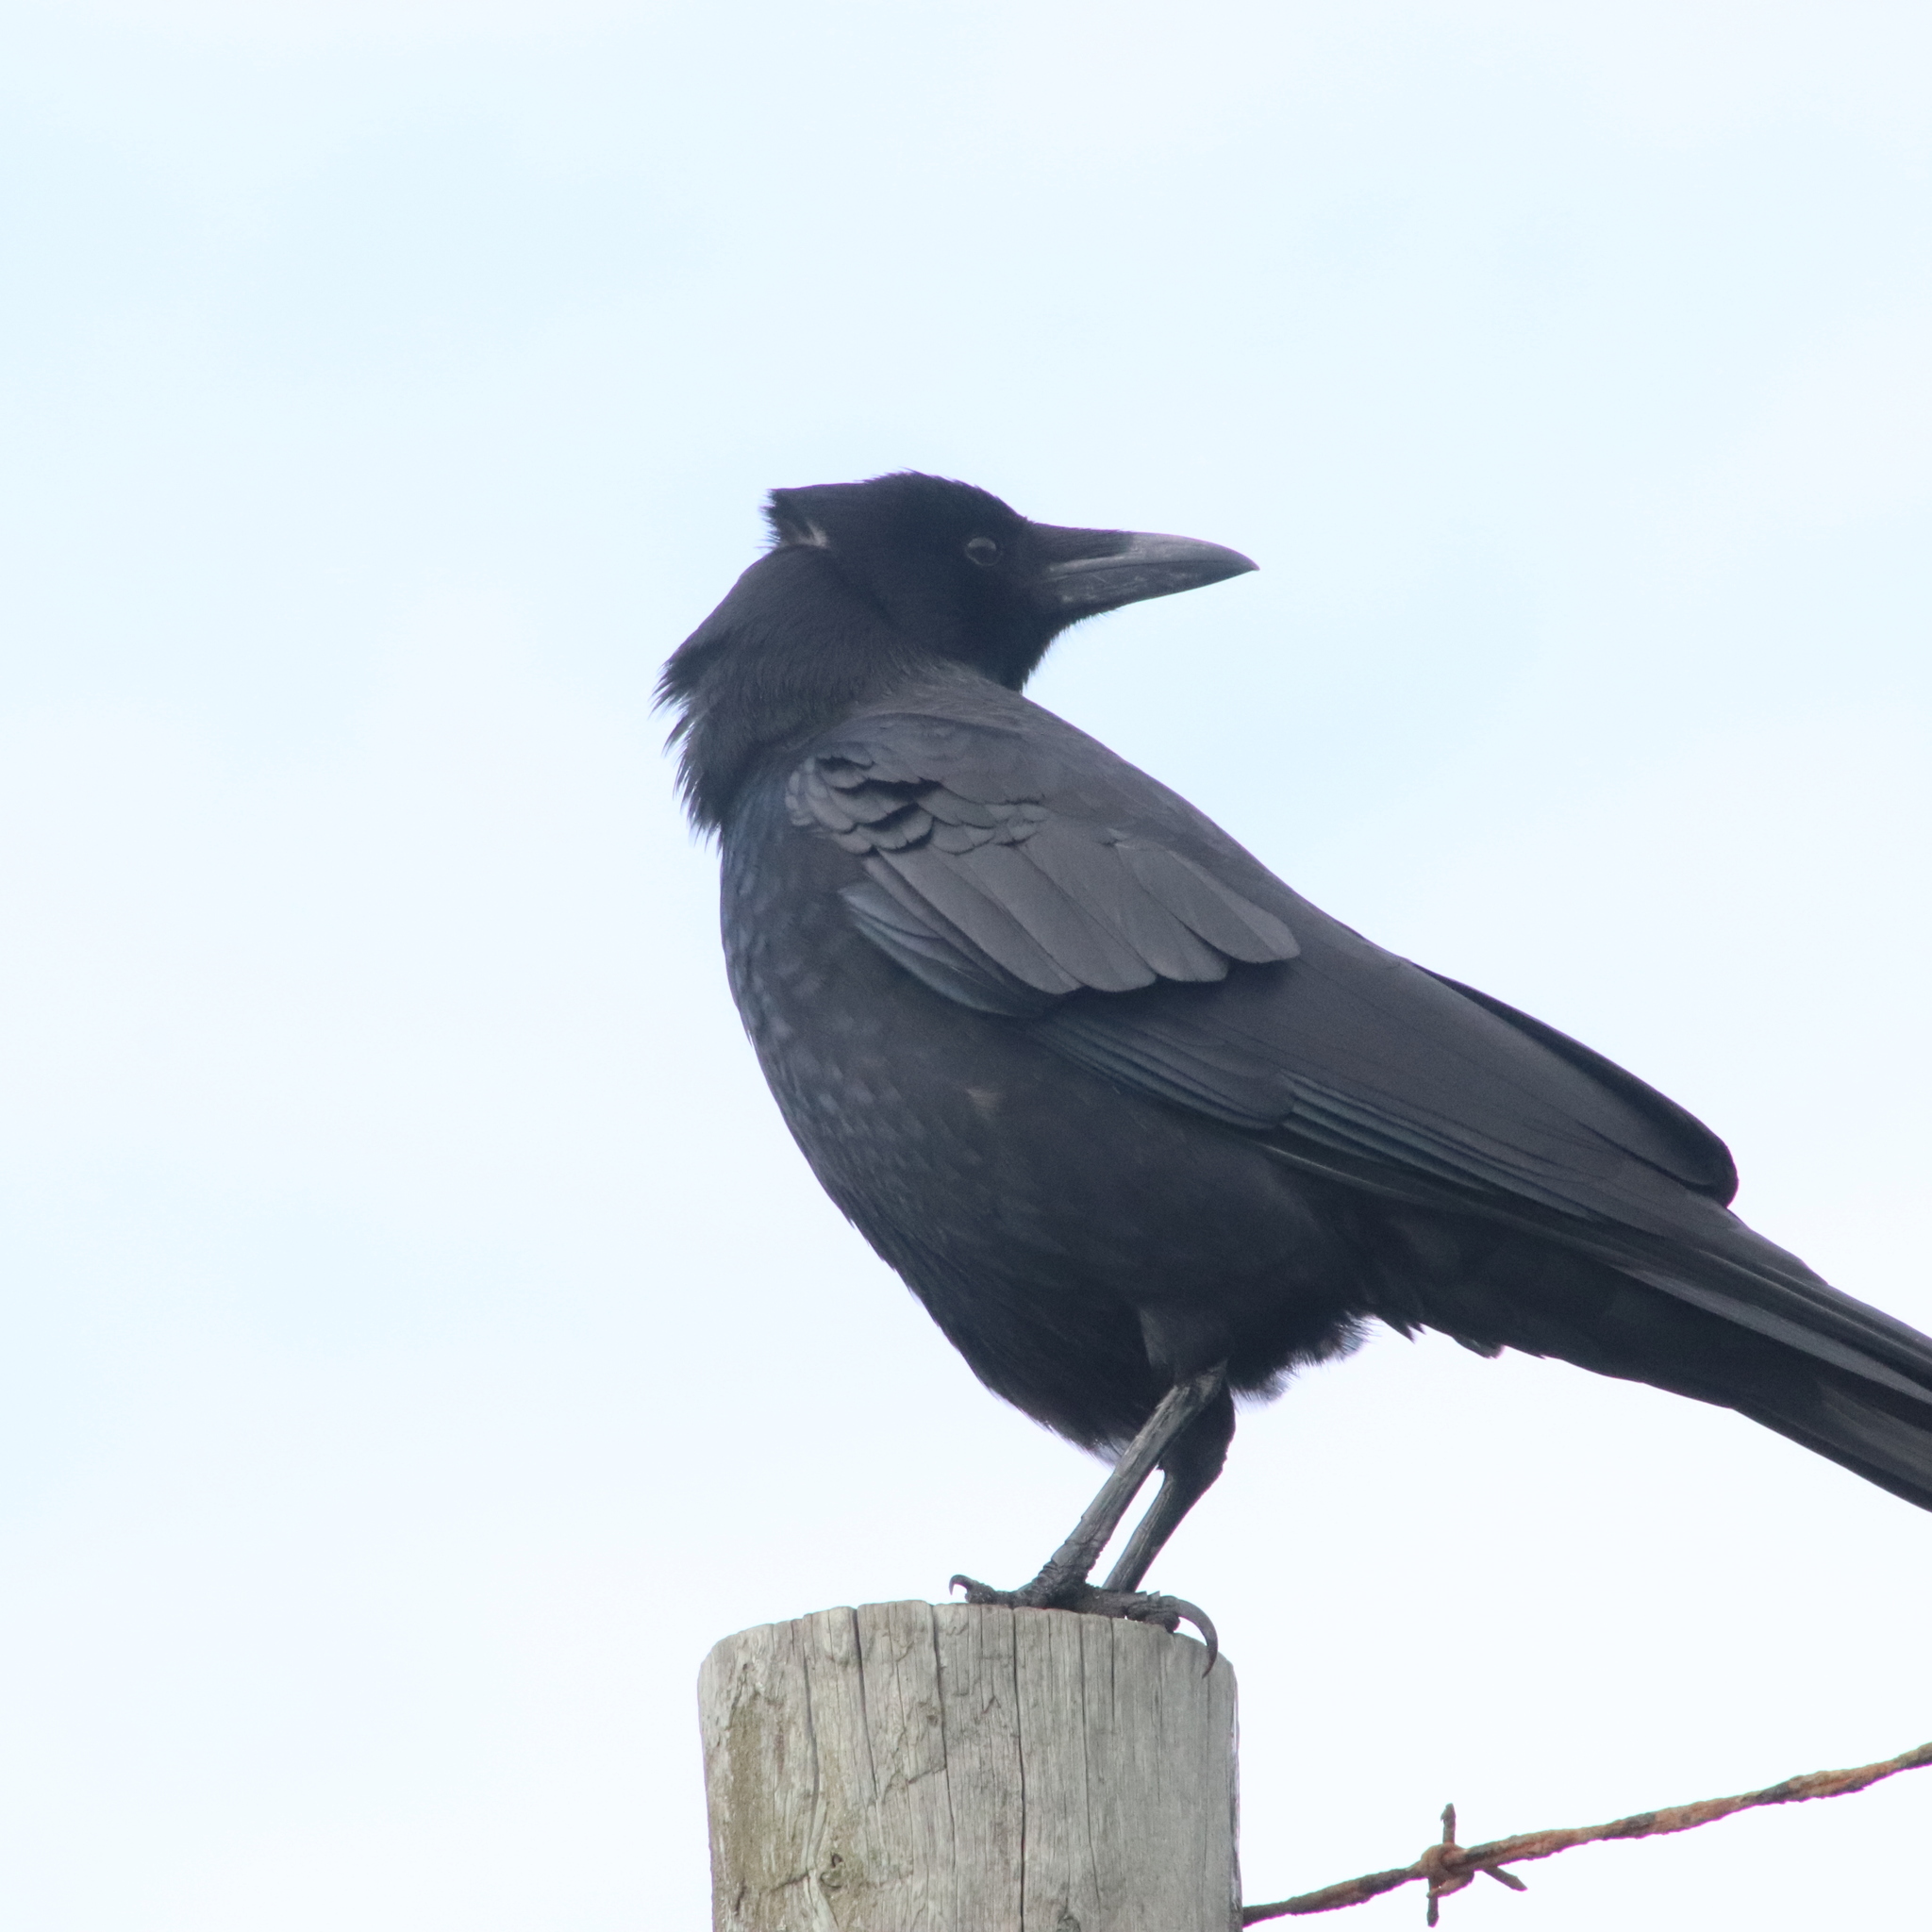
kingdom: Animalia
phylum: Chordata
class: Aves
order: Passeriformes
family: Corvidae
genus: Corvus
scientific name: Corvus brachyrhynchos
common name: American crow
